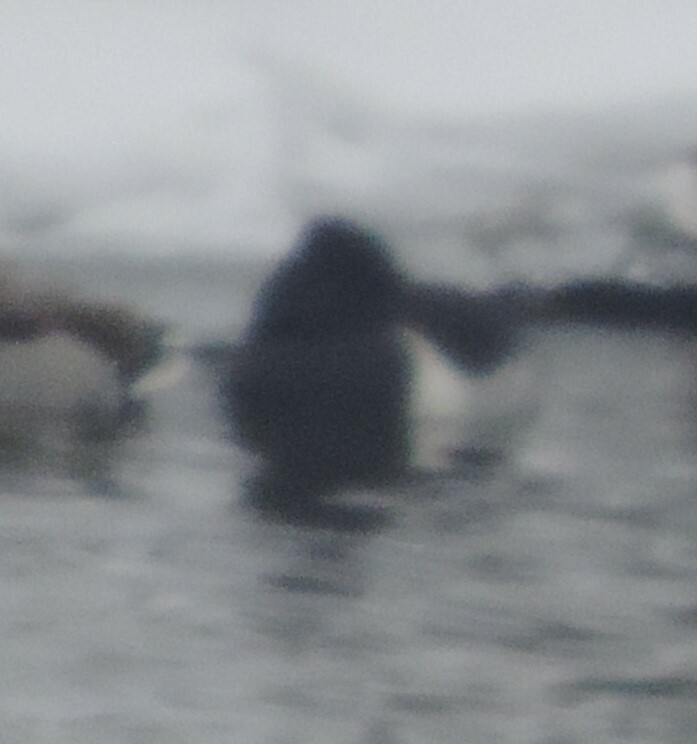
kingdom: Animalia
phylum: Chordata
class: Aves
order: Anseriformes
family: Anatidae
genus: Aythya
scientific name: Aythya collaris
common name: Ring-necked duck
